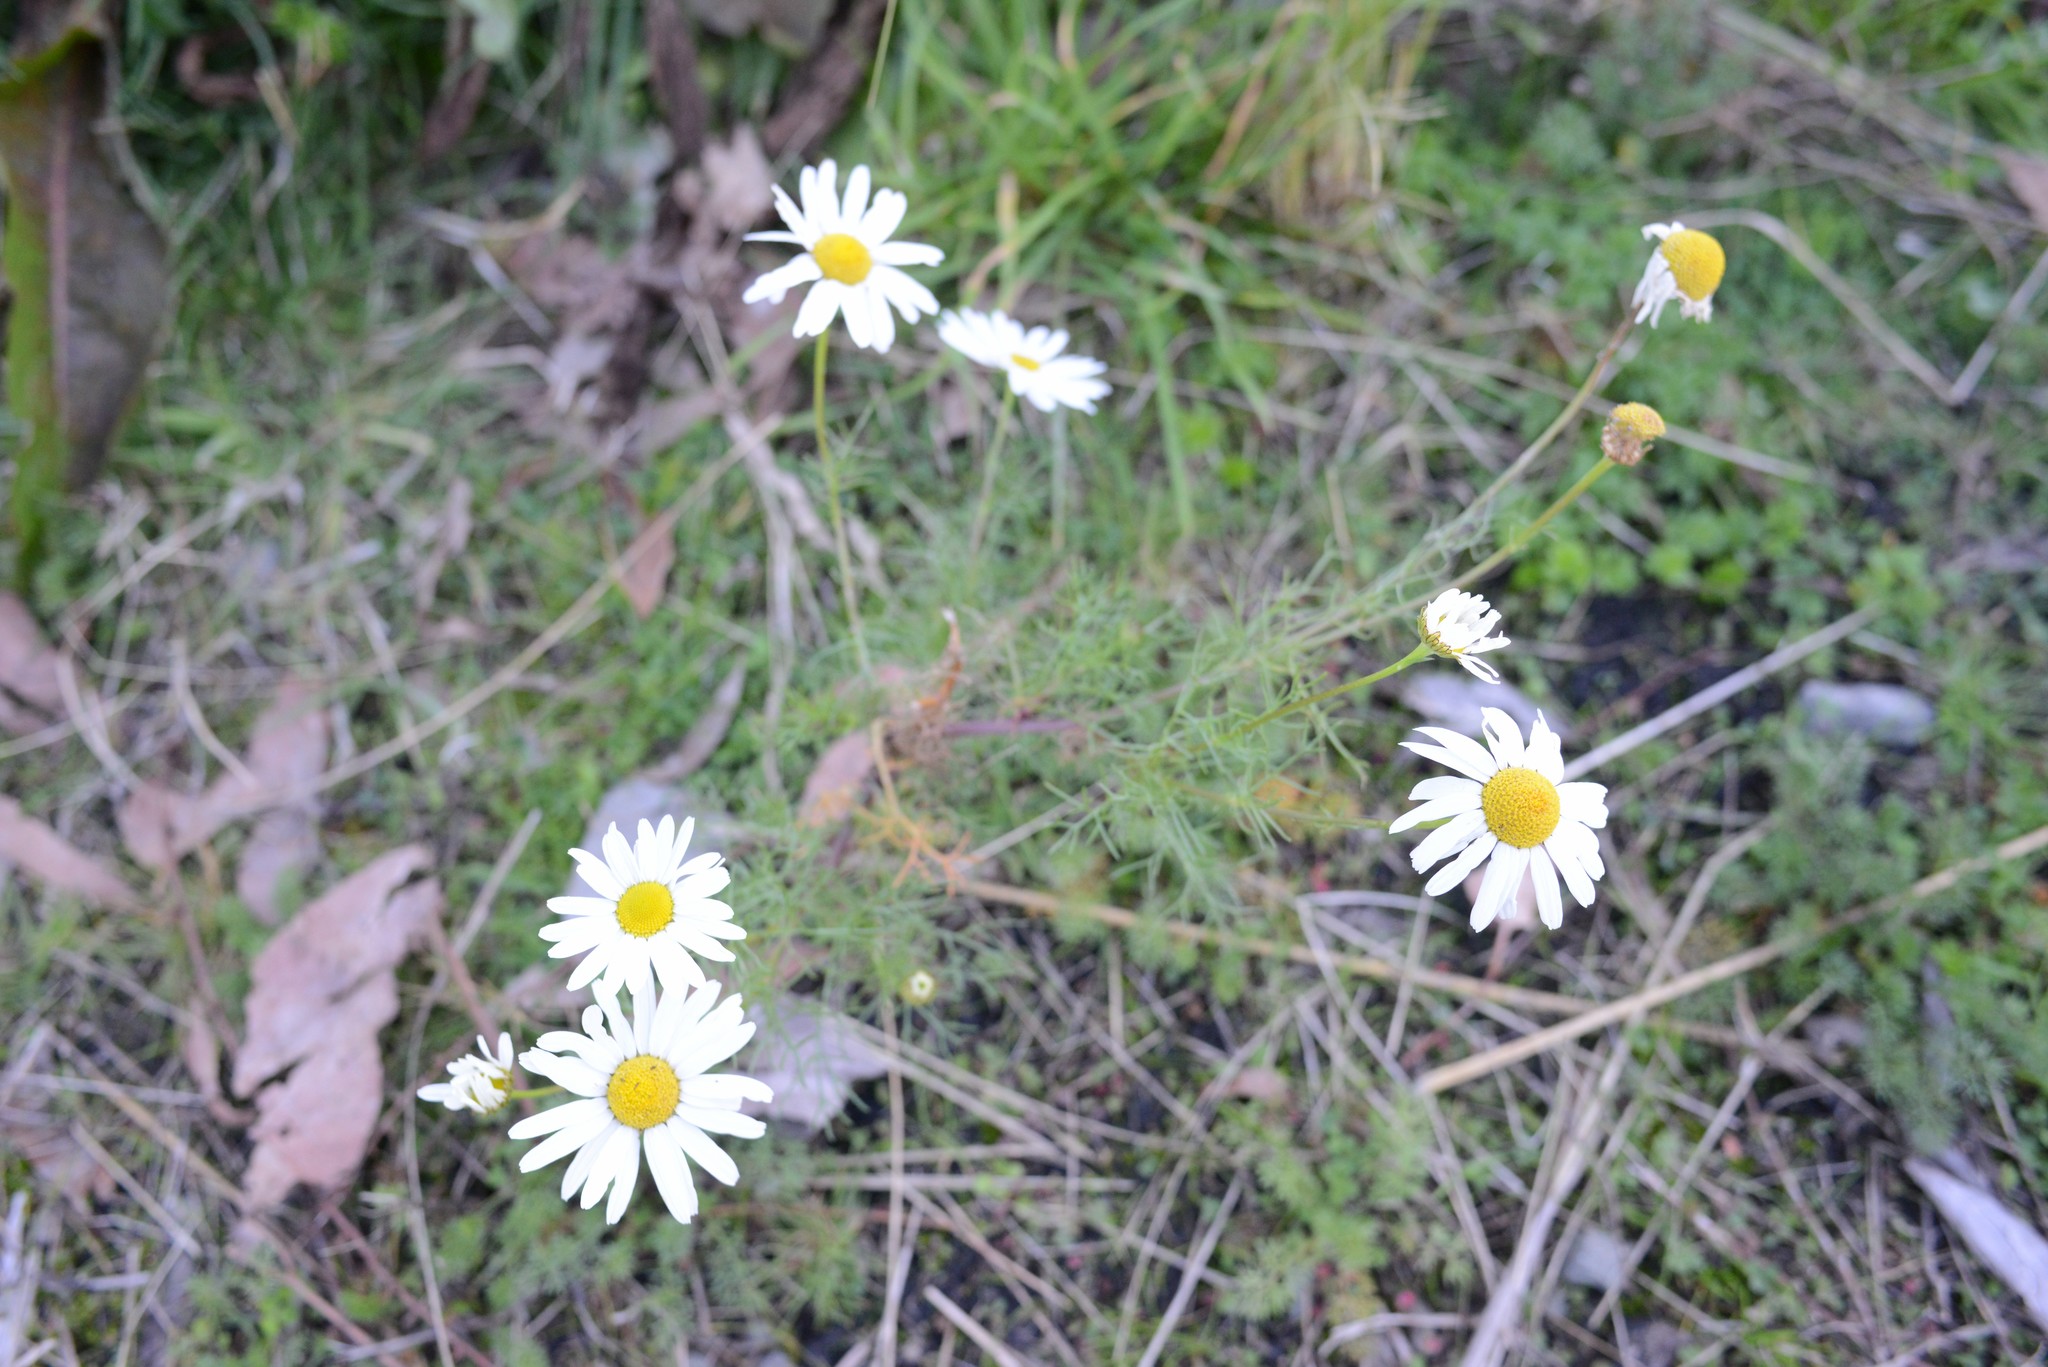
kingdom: Plantae
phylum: Tracheophyta
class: Magnoliopsida
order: Asterales
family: Asteraceae
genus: Tripleurospermum
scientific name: Tripleurospermum inodorum
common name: Scentless mayweed
